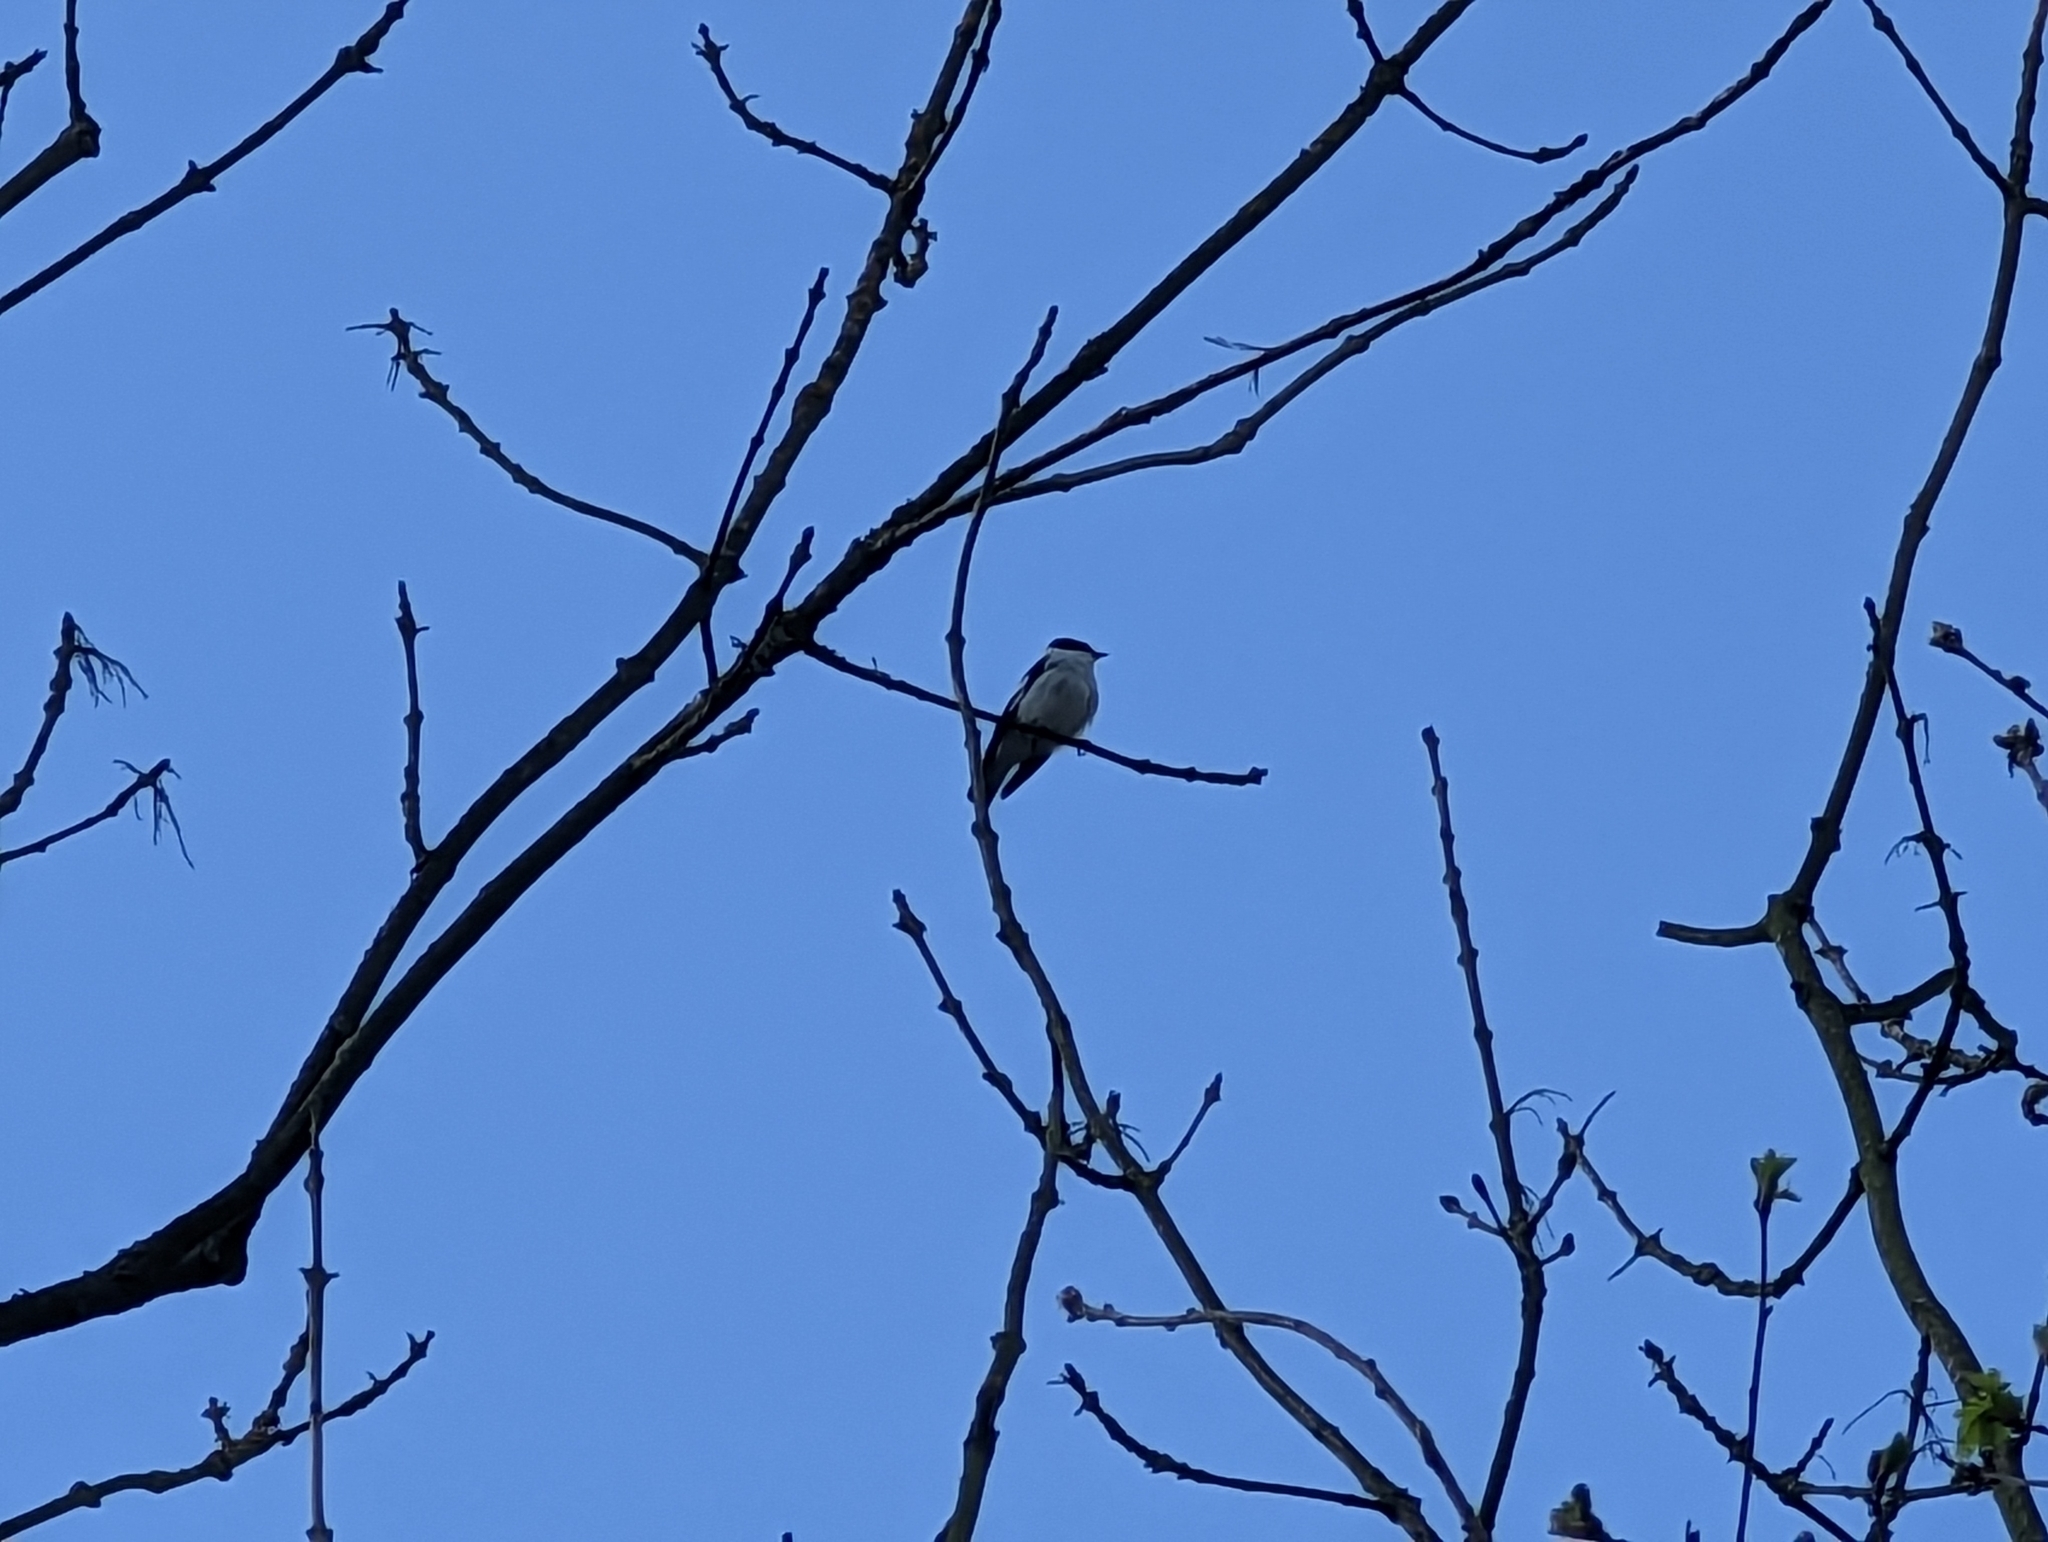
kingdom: Animalia
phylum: Chordata
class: Aves
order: Passeriformes
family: Muscicapidae
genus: Ficedula
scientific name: Ficedula albicollis
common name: Collared flycatcher
